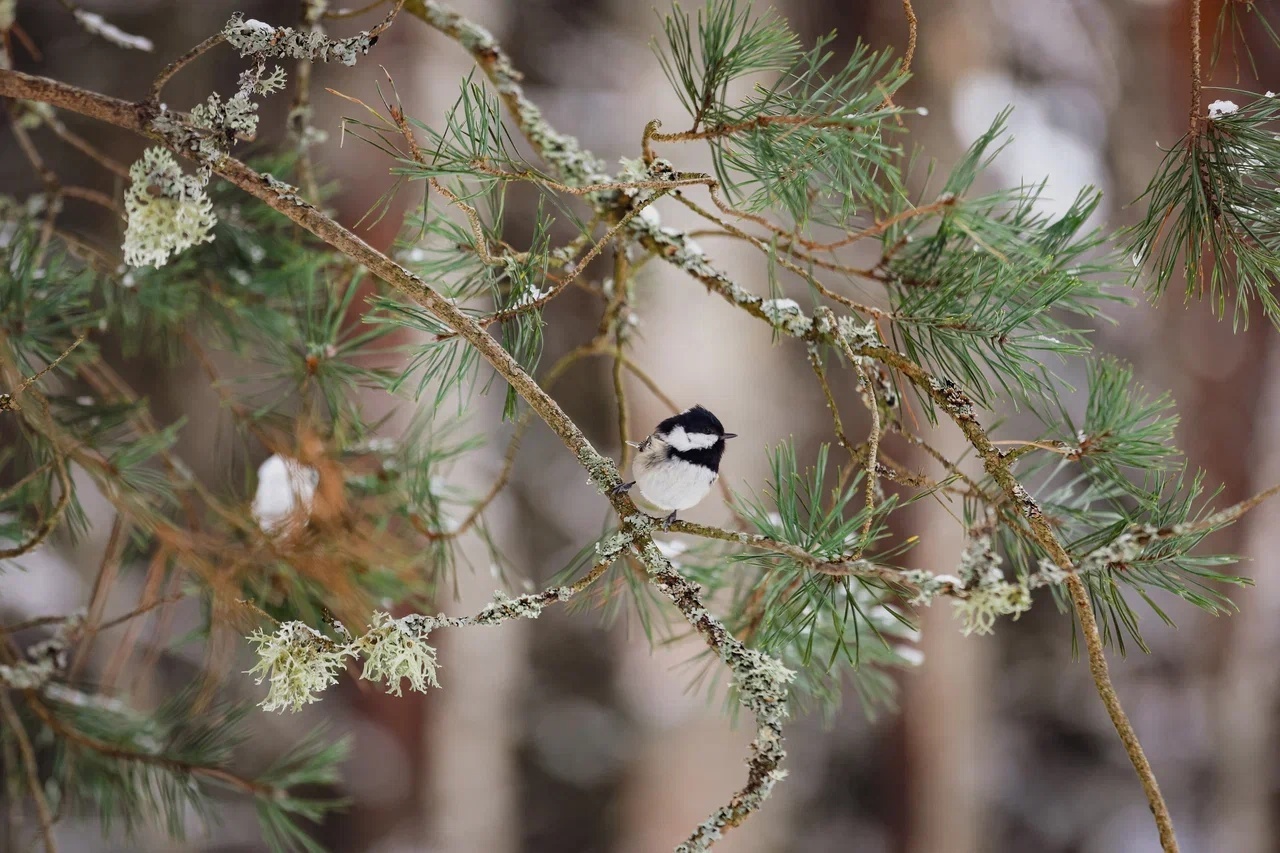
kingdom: Animalia
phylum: Chordata
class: Aves
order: Passeriformes
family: Paridae
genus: Periparus
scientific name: Periparus ater
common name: Coal tit
